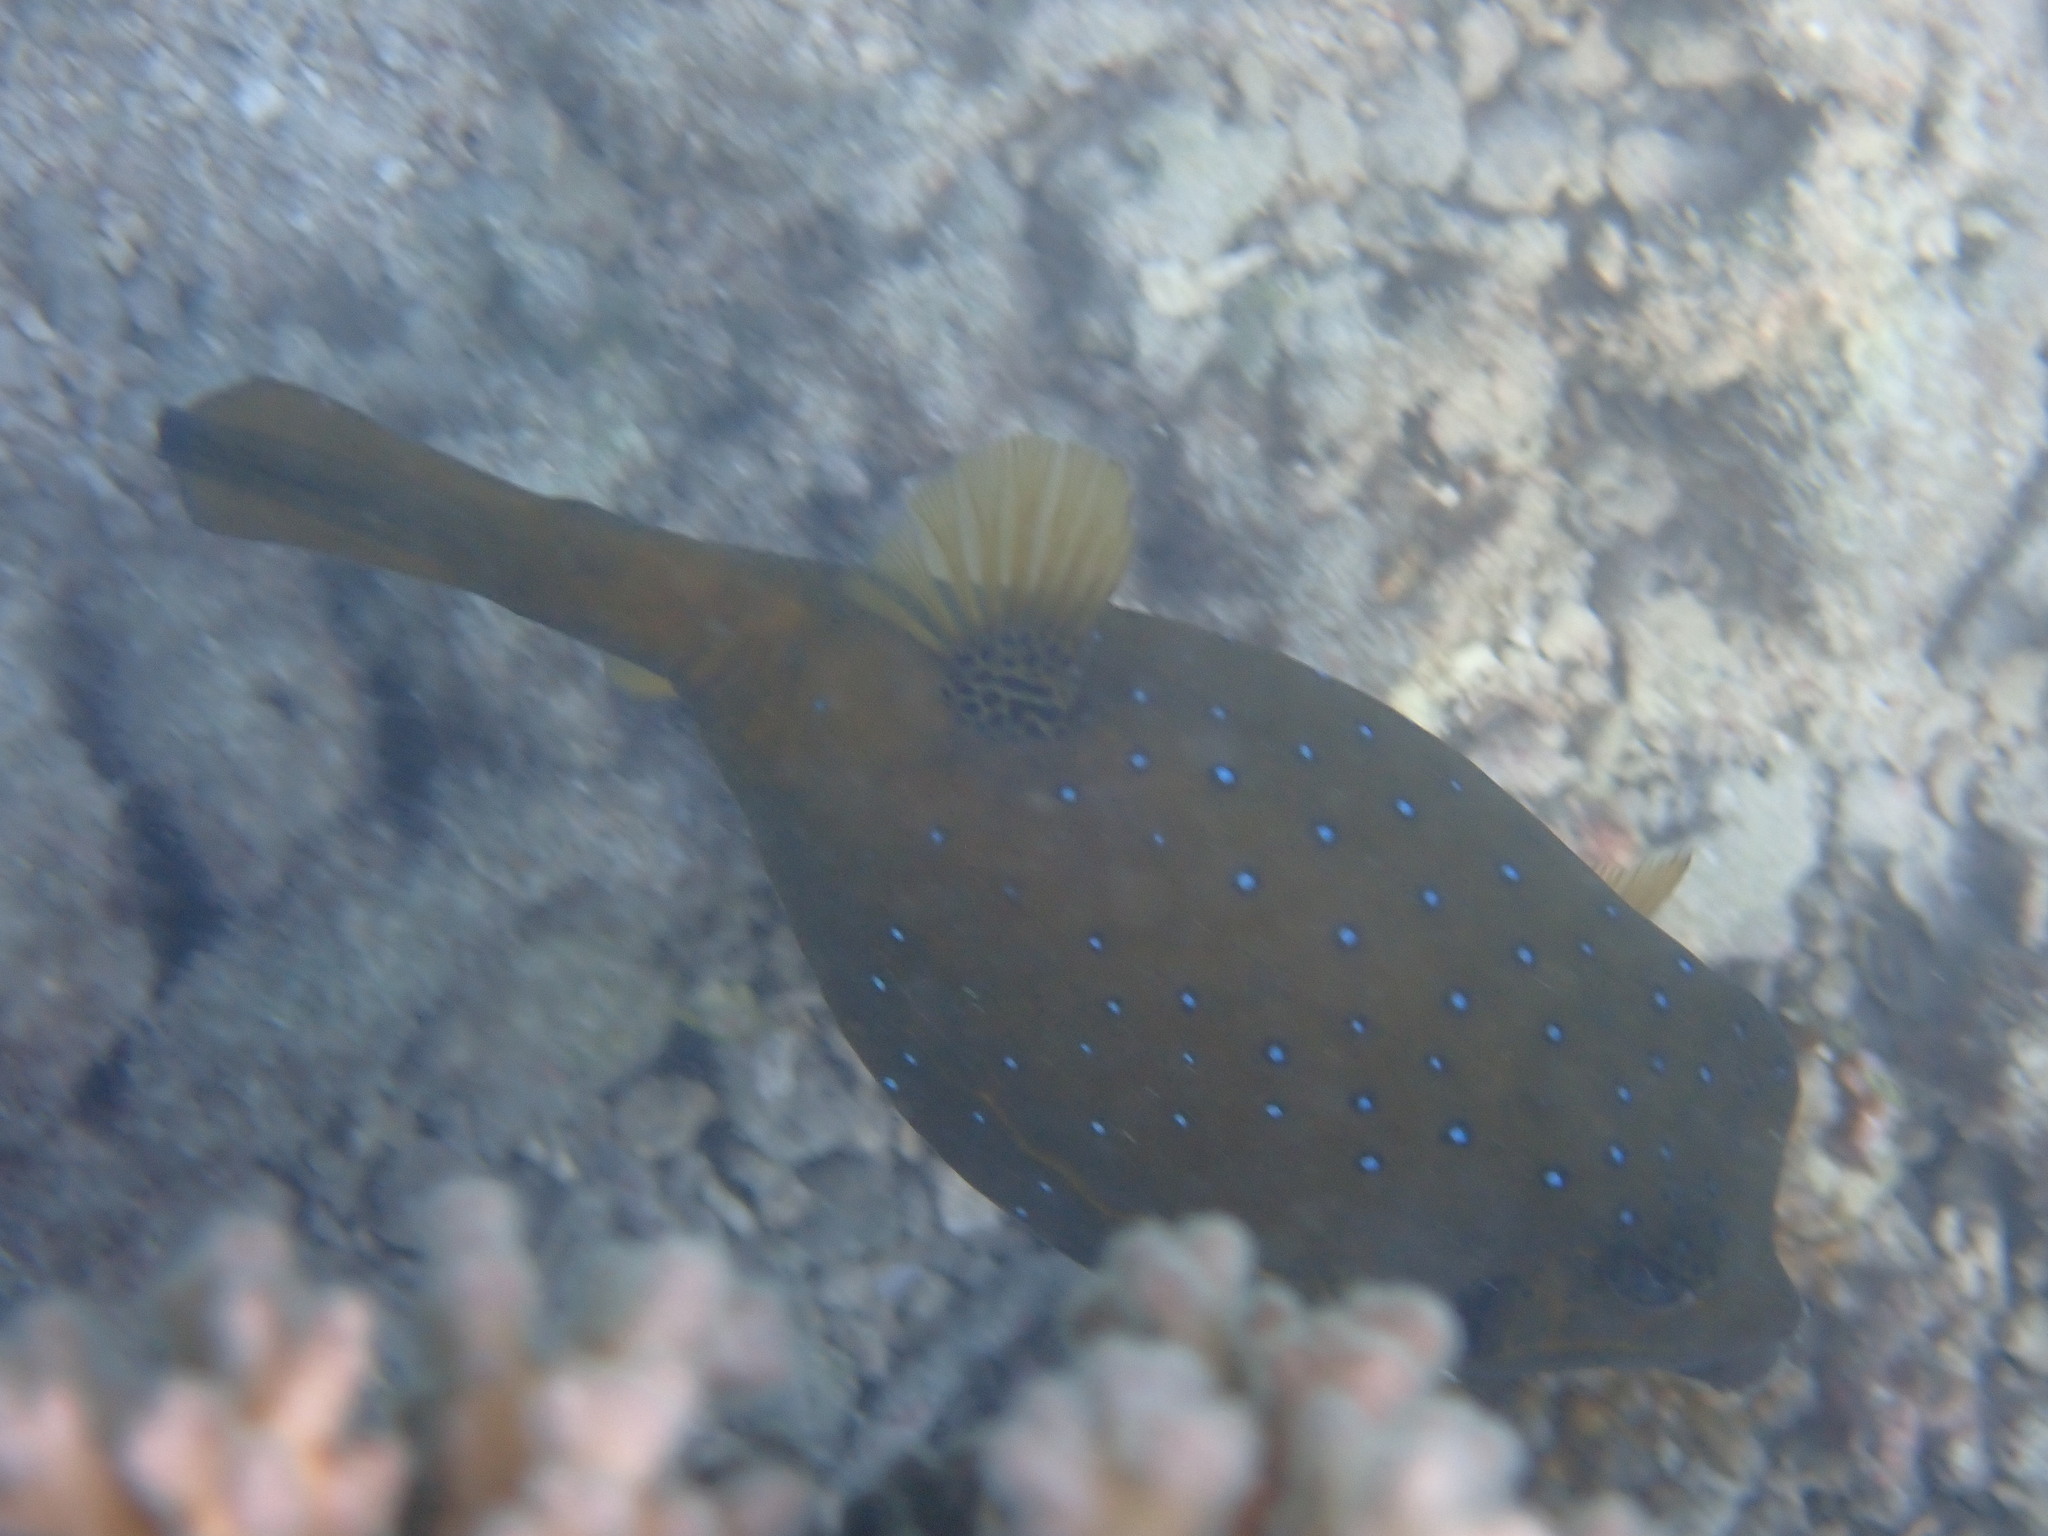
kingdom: Animalia
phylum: Chordata
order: Tetraodontiformes
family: Ostraciidae
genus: Ostracion
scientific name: Ostracion cubicus
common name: Cube trunkfish
